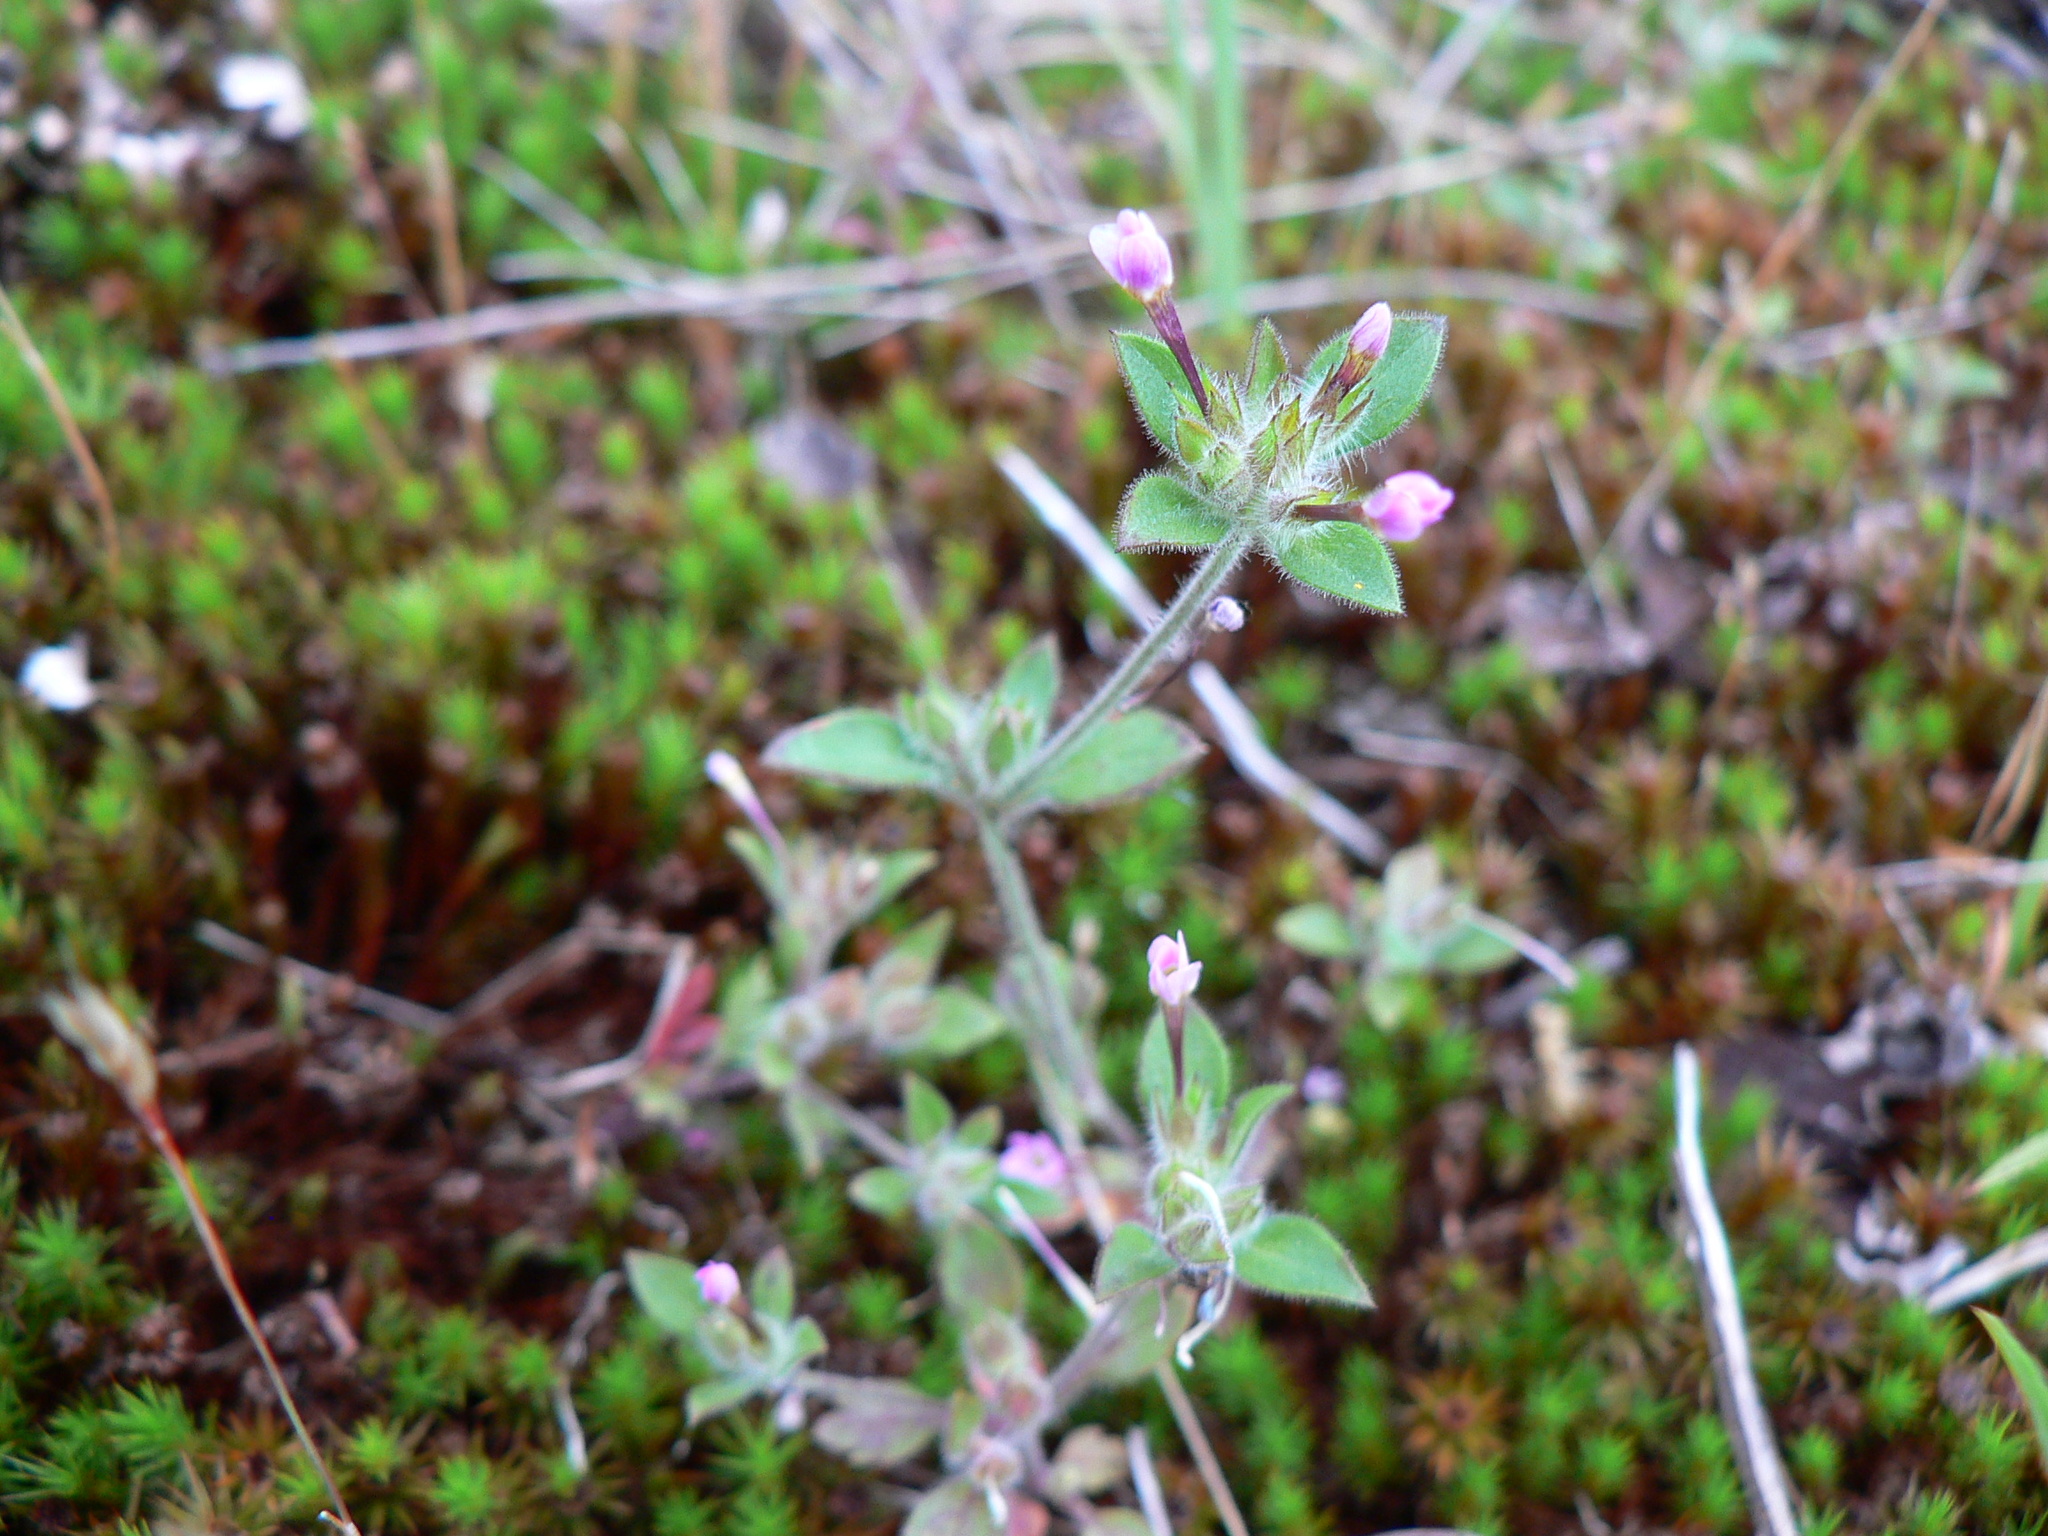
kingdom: Plantae
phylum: Tracheophyta
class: Magnoliopsida
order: Ericales
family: Polemoniaceae
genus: Collomia
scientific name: Collomia heterophylla
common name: Variable-leaved collomia
